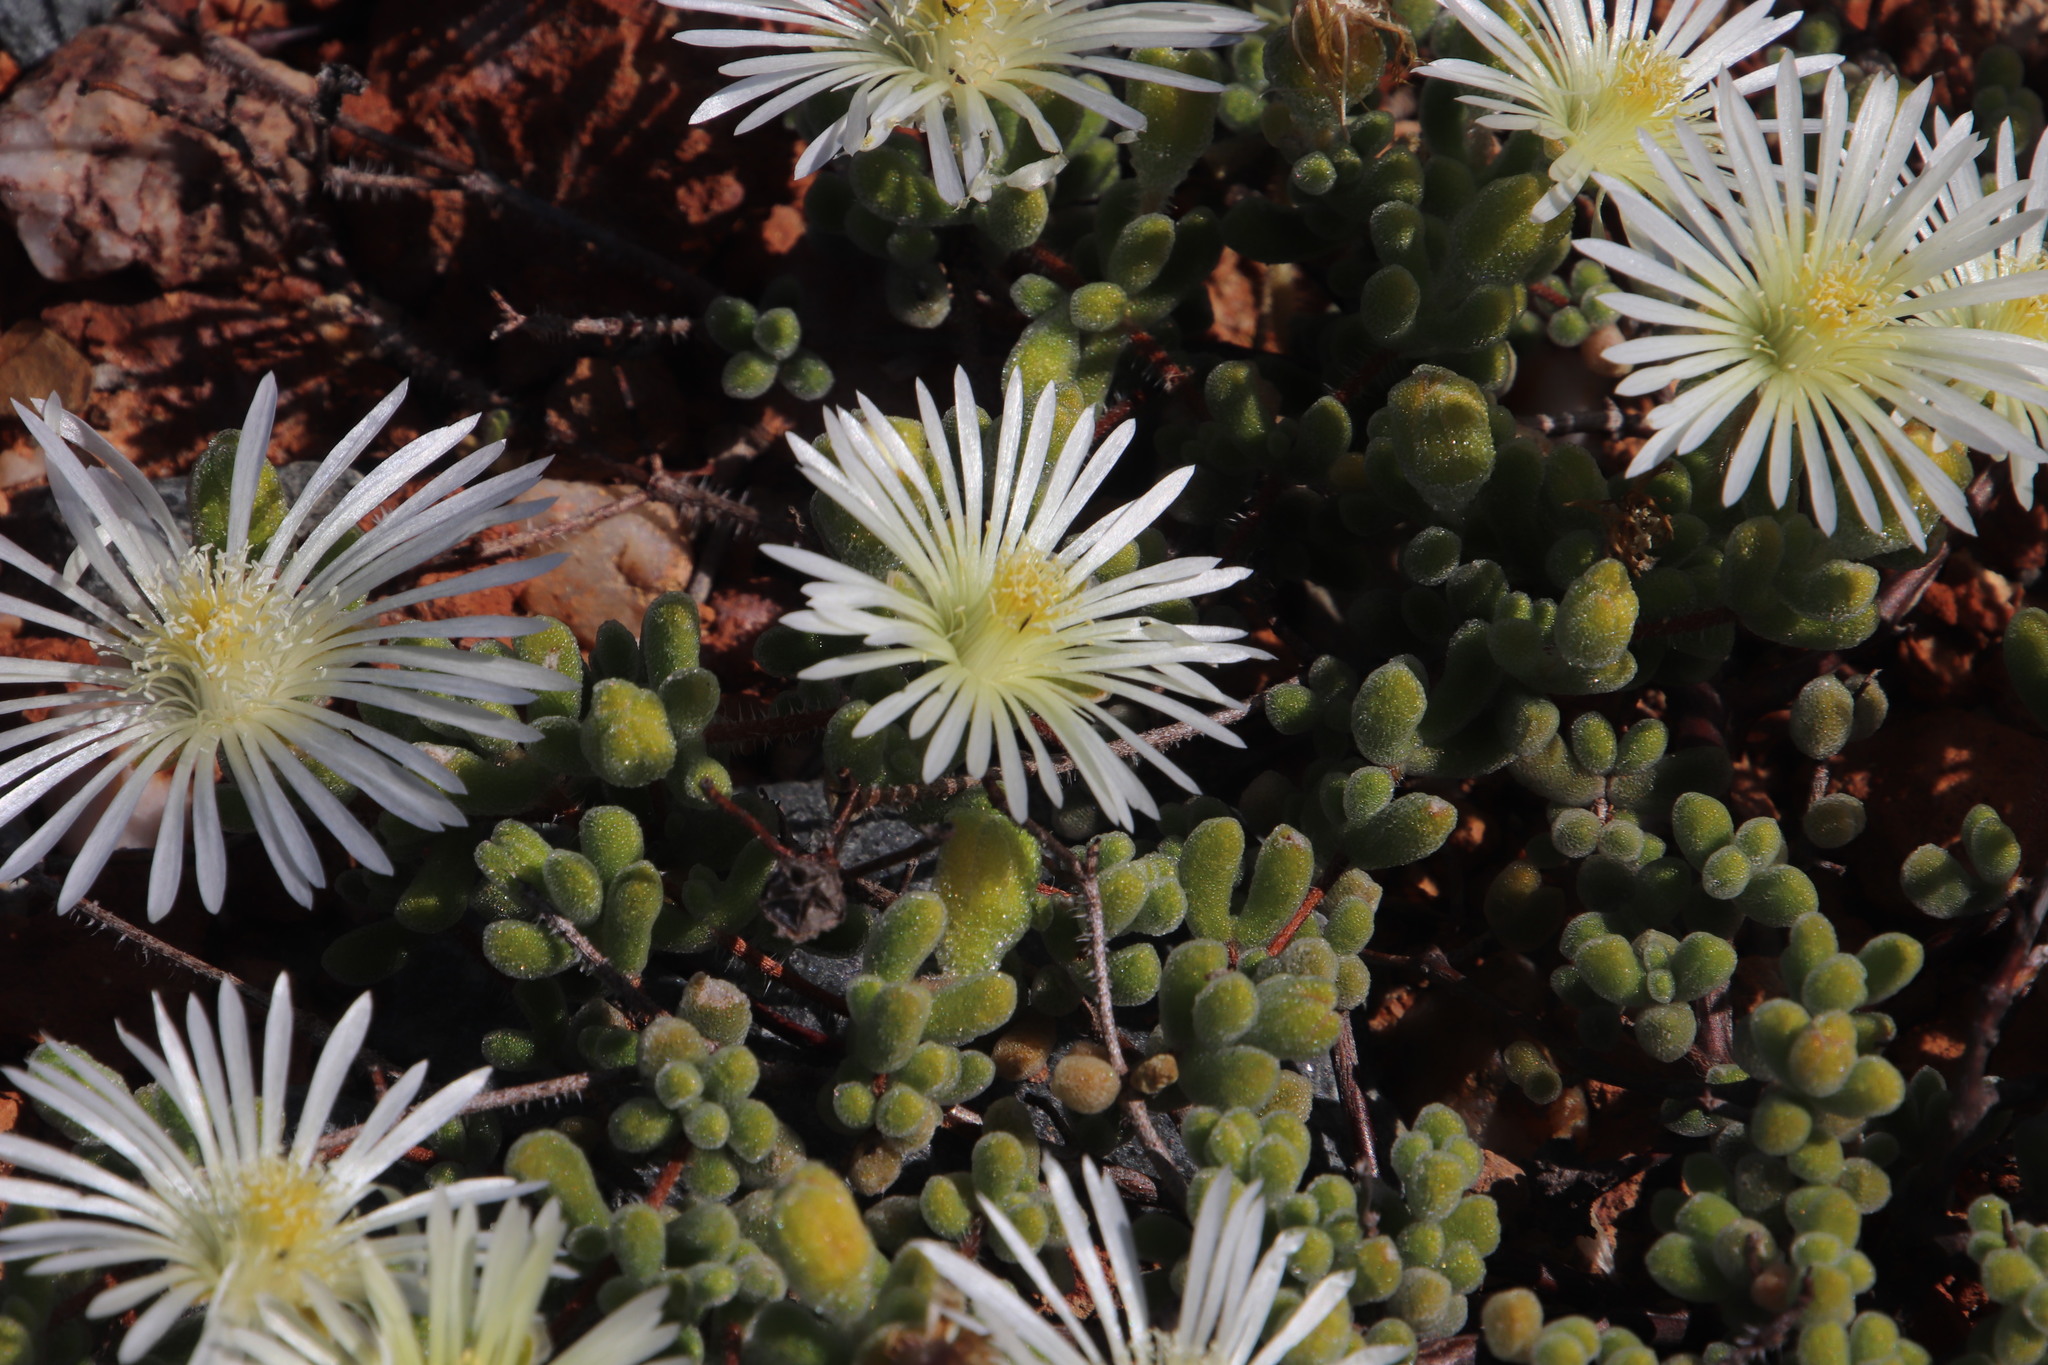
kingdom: Plantae
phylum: Tracheophyta
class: Magnoliopsida
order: Caryophyllales
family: Aizoaceae
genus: Drosanthemum
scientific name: Drosanthemum schoenlandianum
